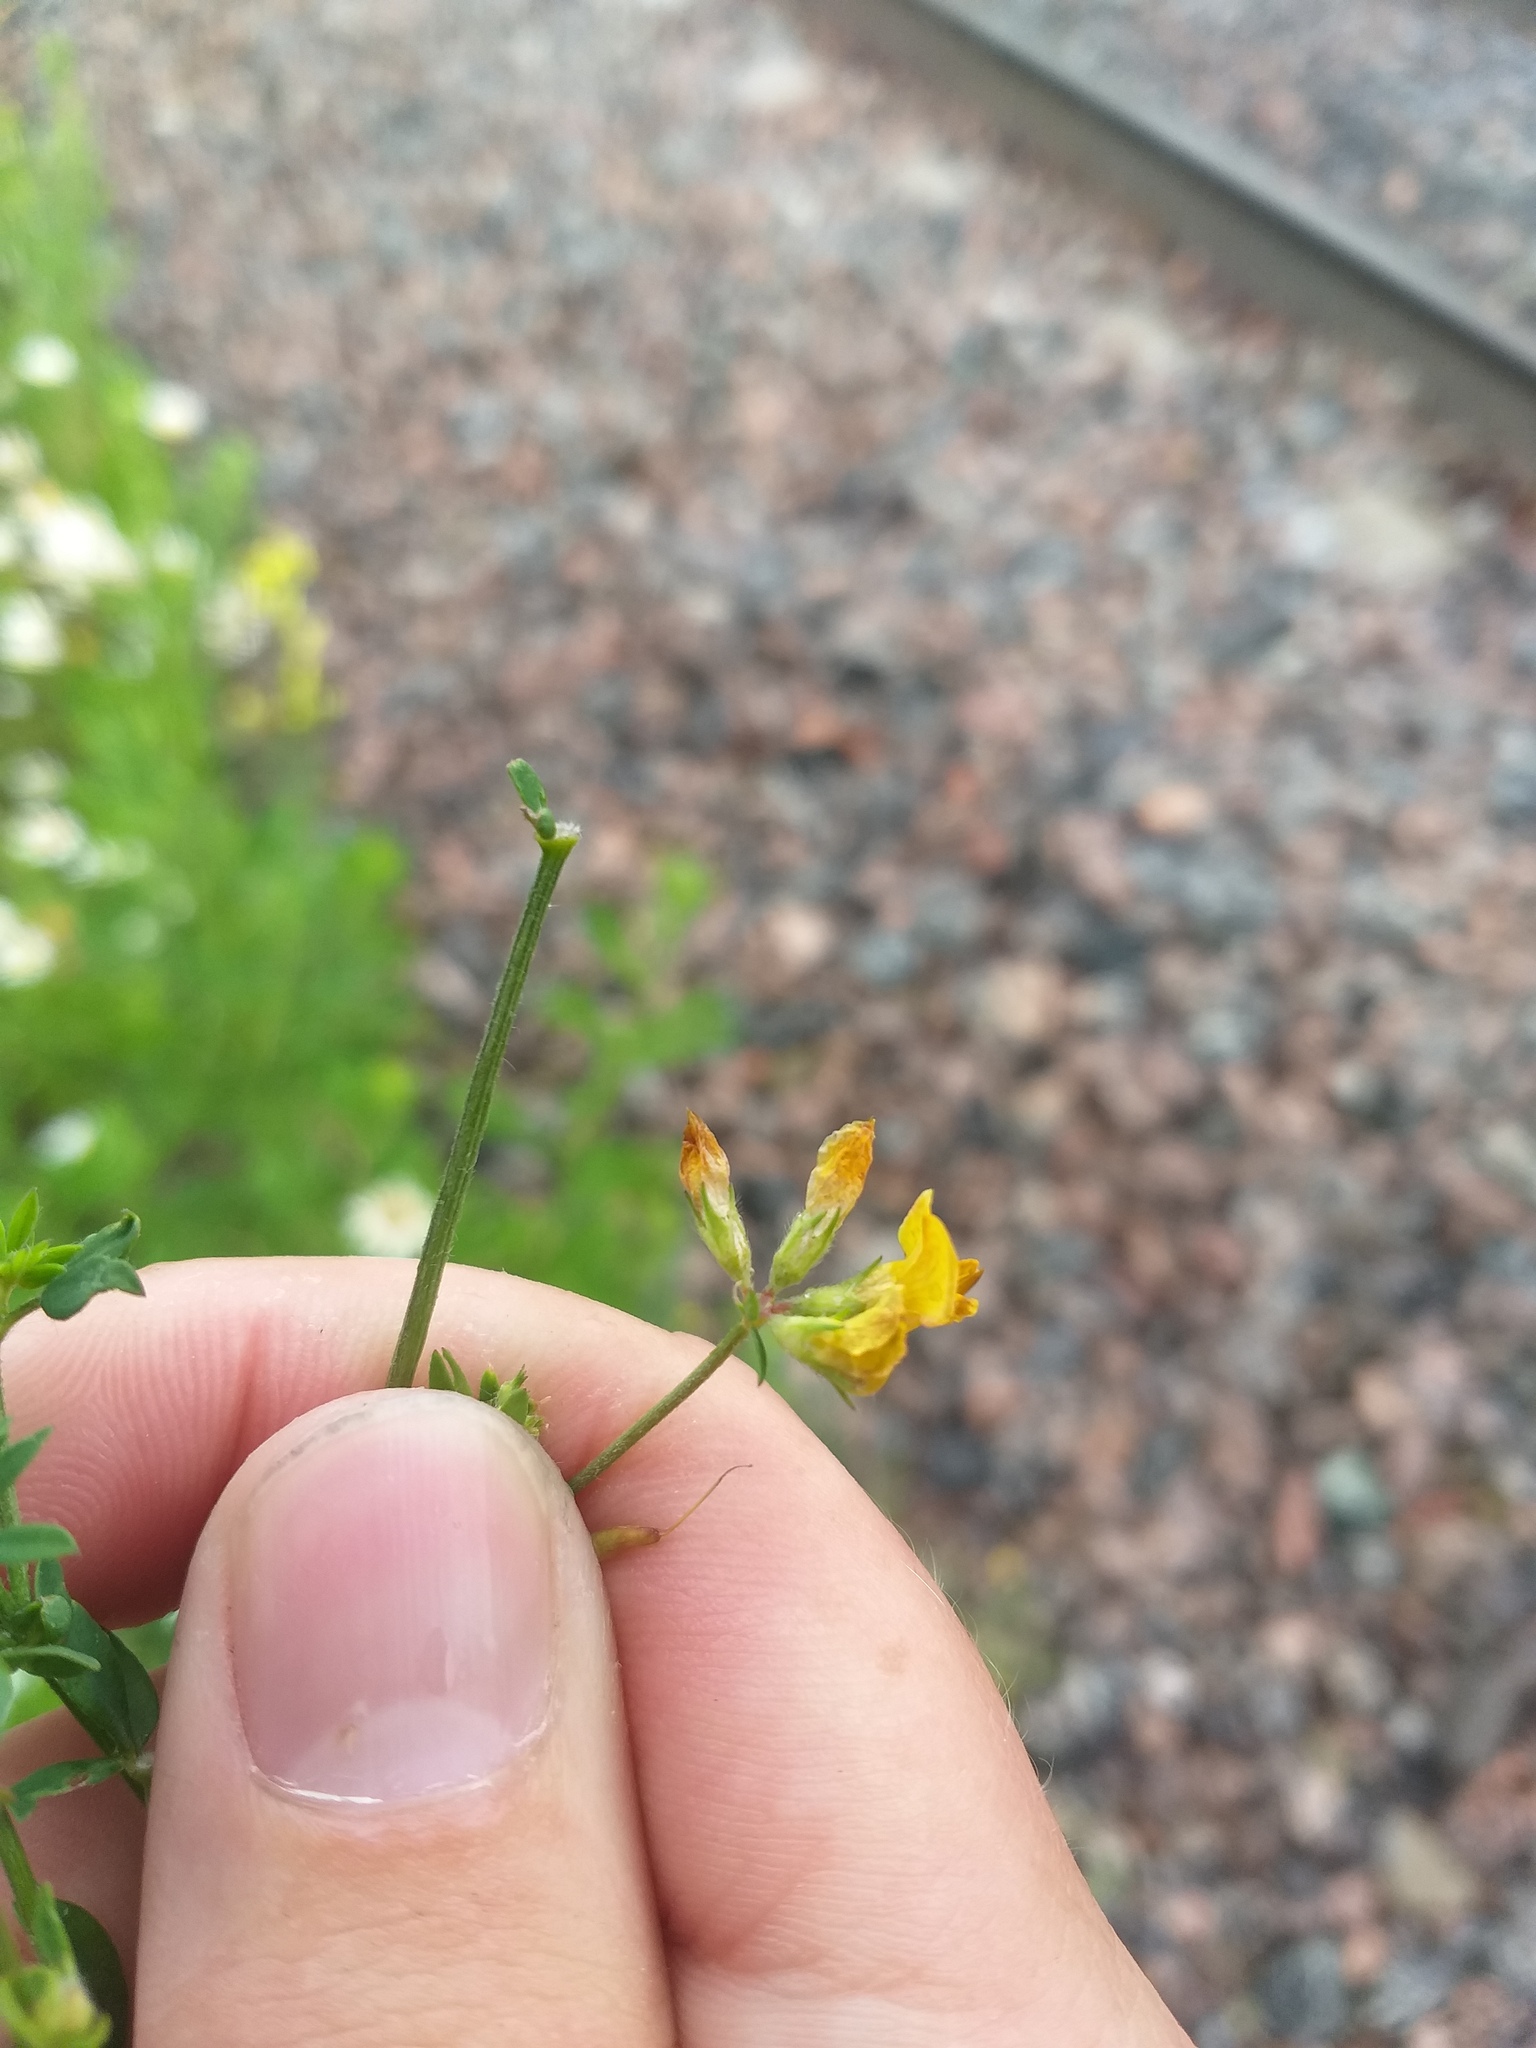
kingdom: Plantae
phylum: Tracheophyta
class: Magnoliopsida
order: Fabales
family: Fabaceae
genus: Lotus
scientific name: Lotus corniculatus
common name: Common bird's-foot-trefoil
